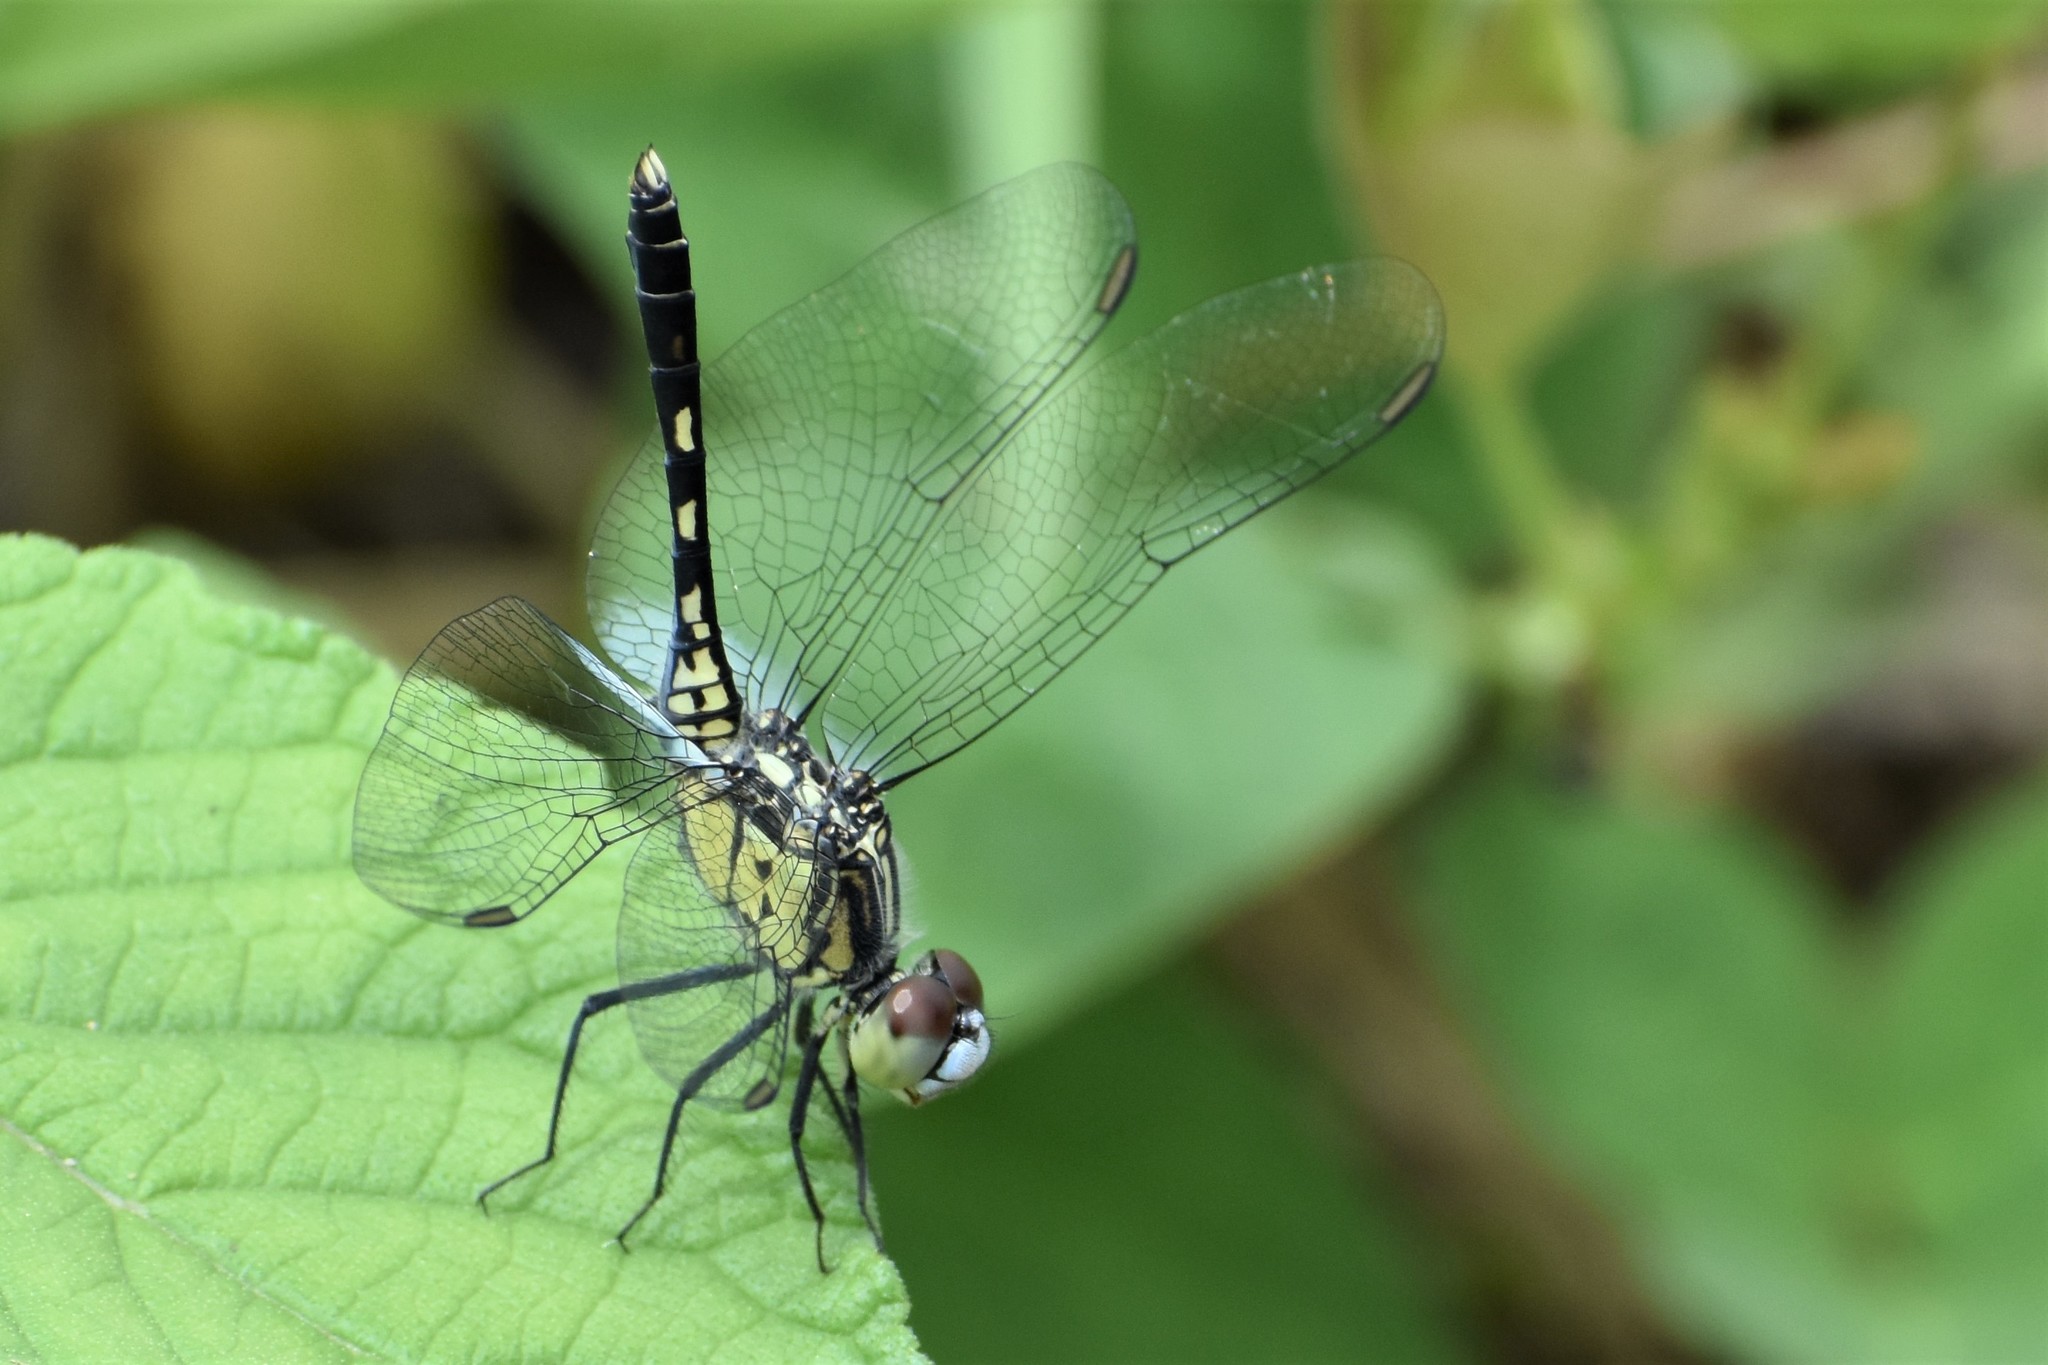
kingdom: Animalia
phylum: Arthropoda
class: Insecta
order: Odonata
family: Libellulidae
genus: Diplacodes
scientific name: Diplacodes trivialis
